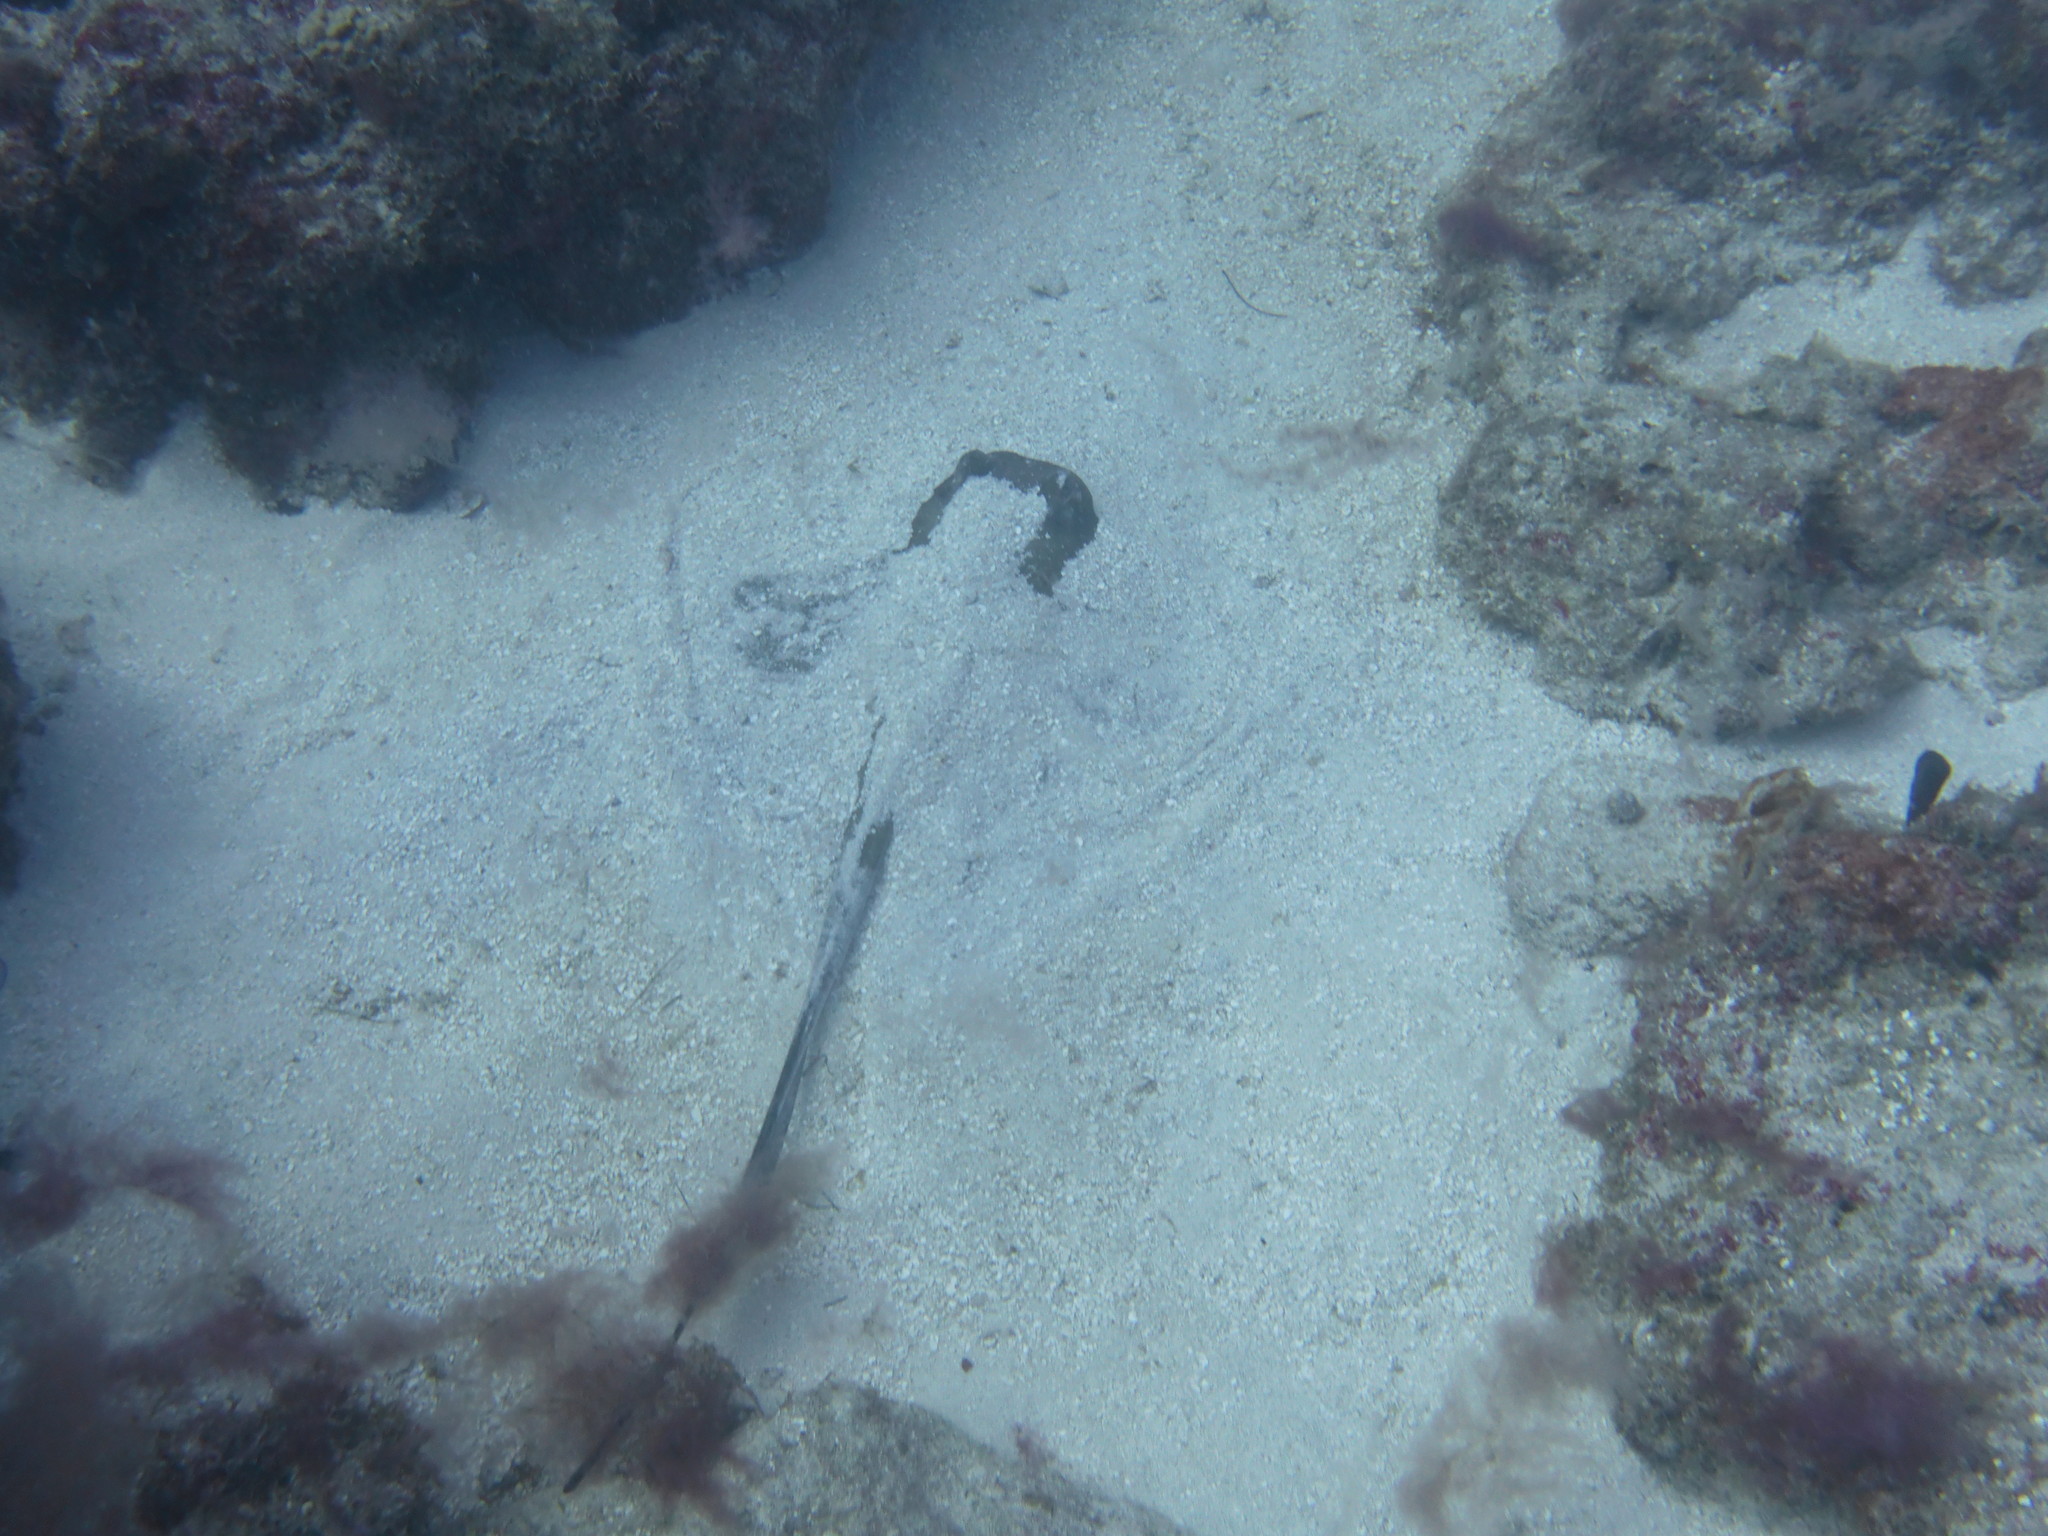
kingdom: Animalia
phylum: Chordata
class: Elasmobranchii
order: Myliobatiformes
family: Dasyatidae
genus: Hypanus
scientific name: Hypanus americanus
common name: Southern stingray
